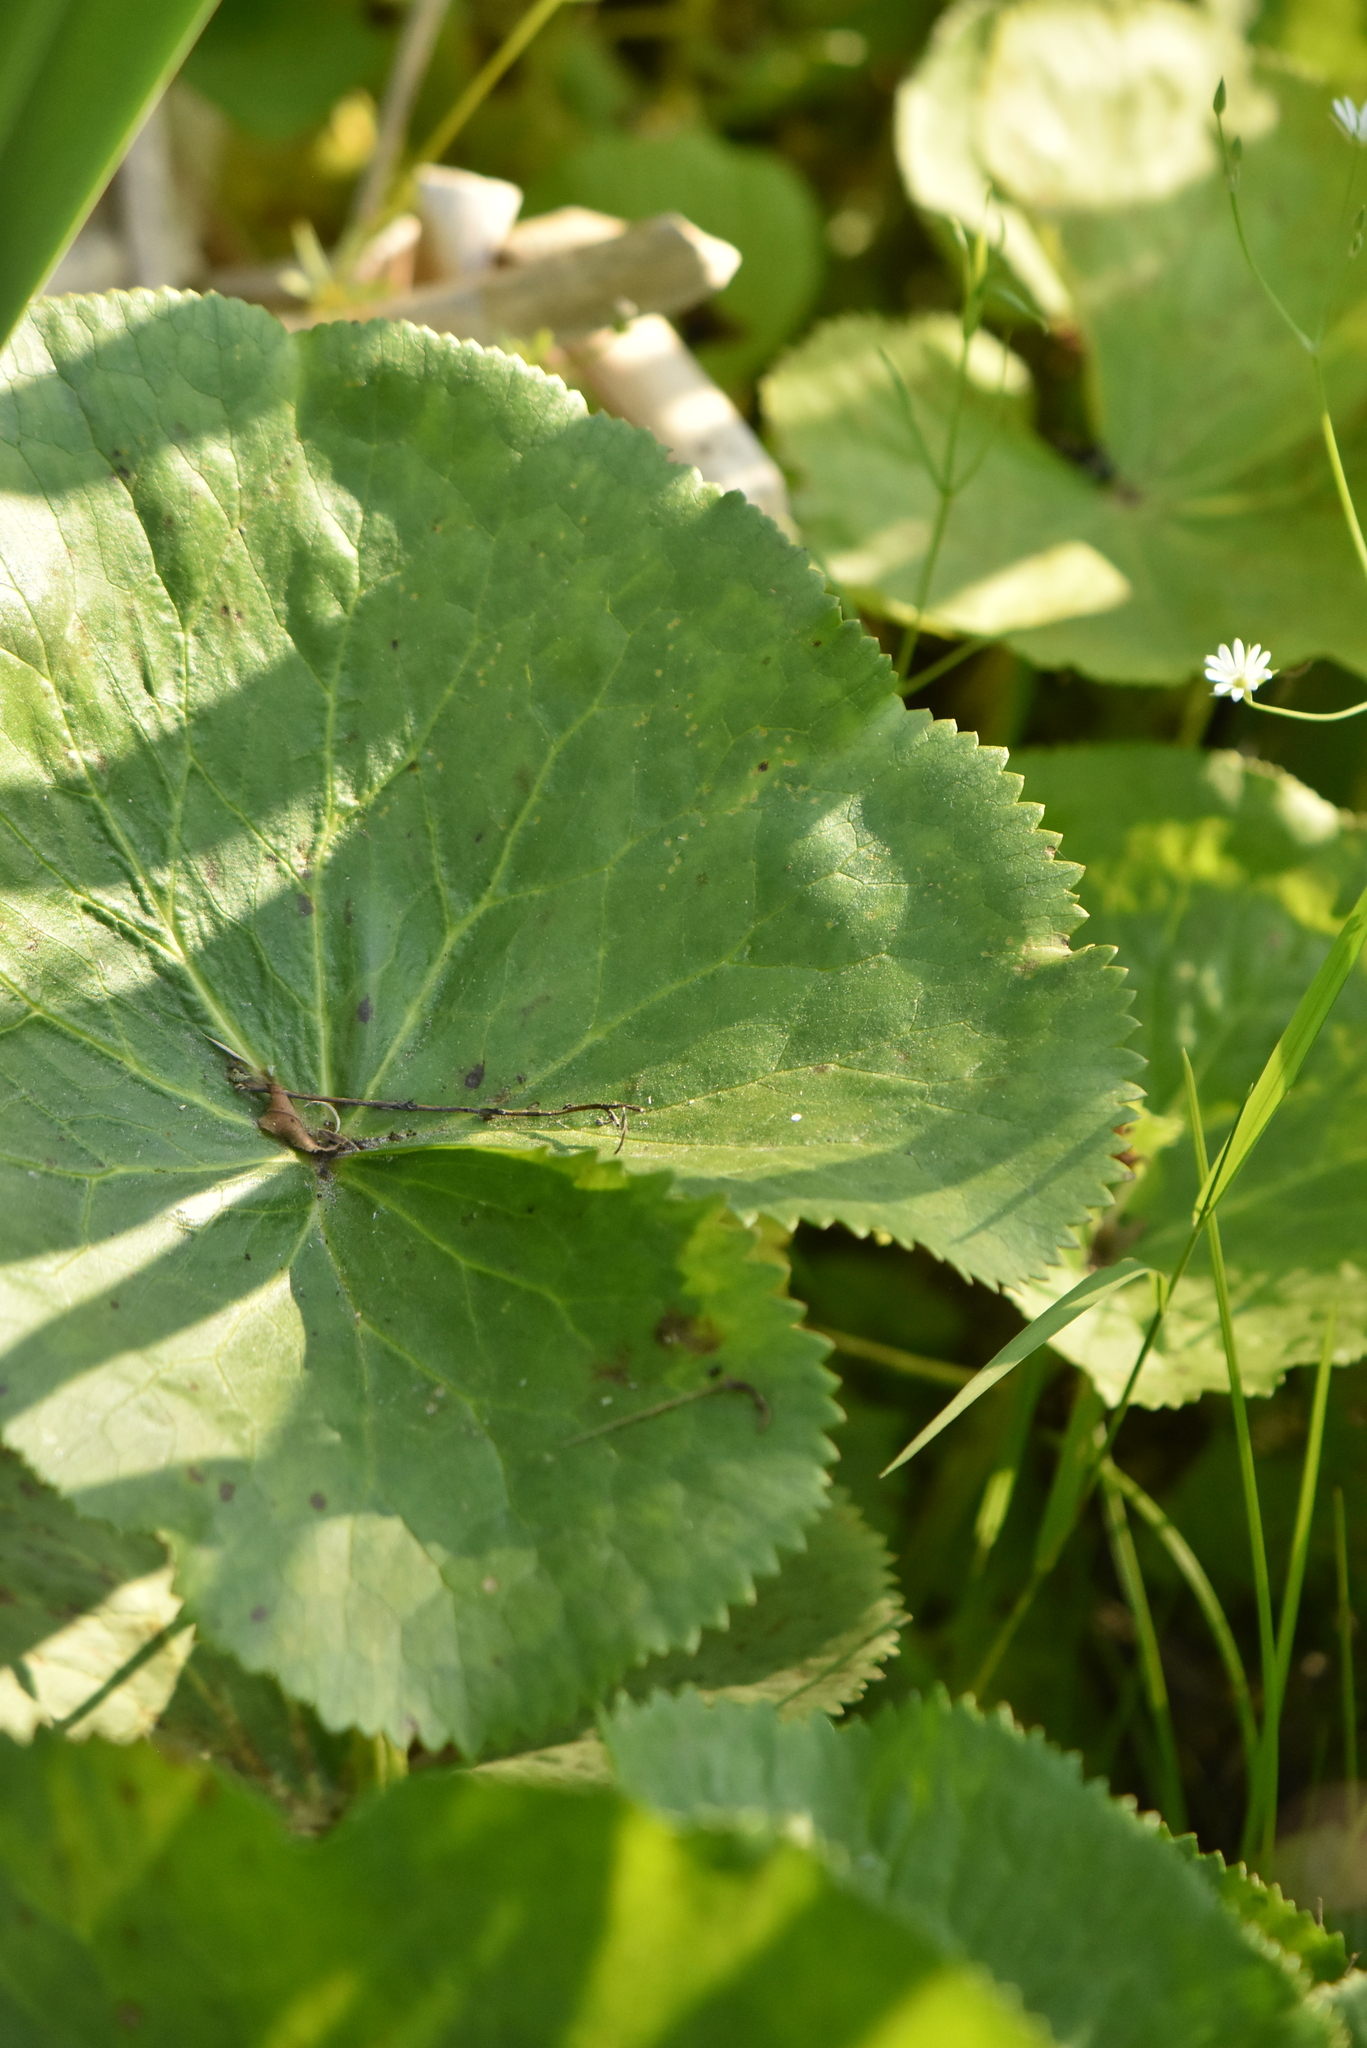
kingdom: Plantae
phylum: Tracheophyta
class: Magnoliopsida
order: Ranunculales
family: Ranunculaceae
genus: Caltha
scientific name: Caltha palustris
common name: Marsh marigold
